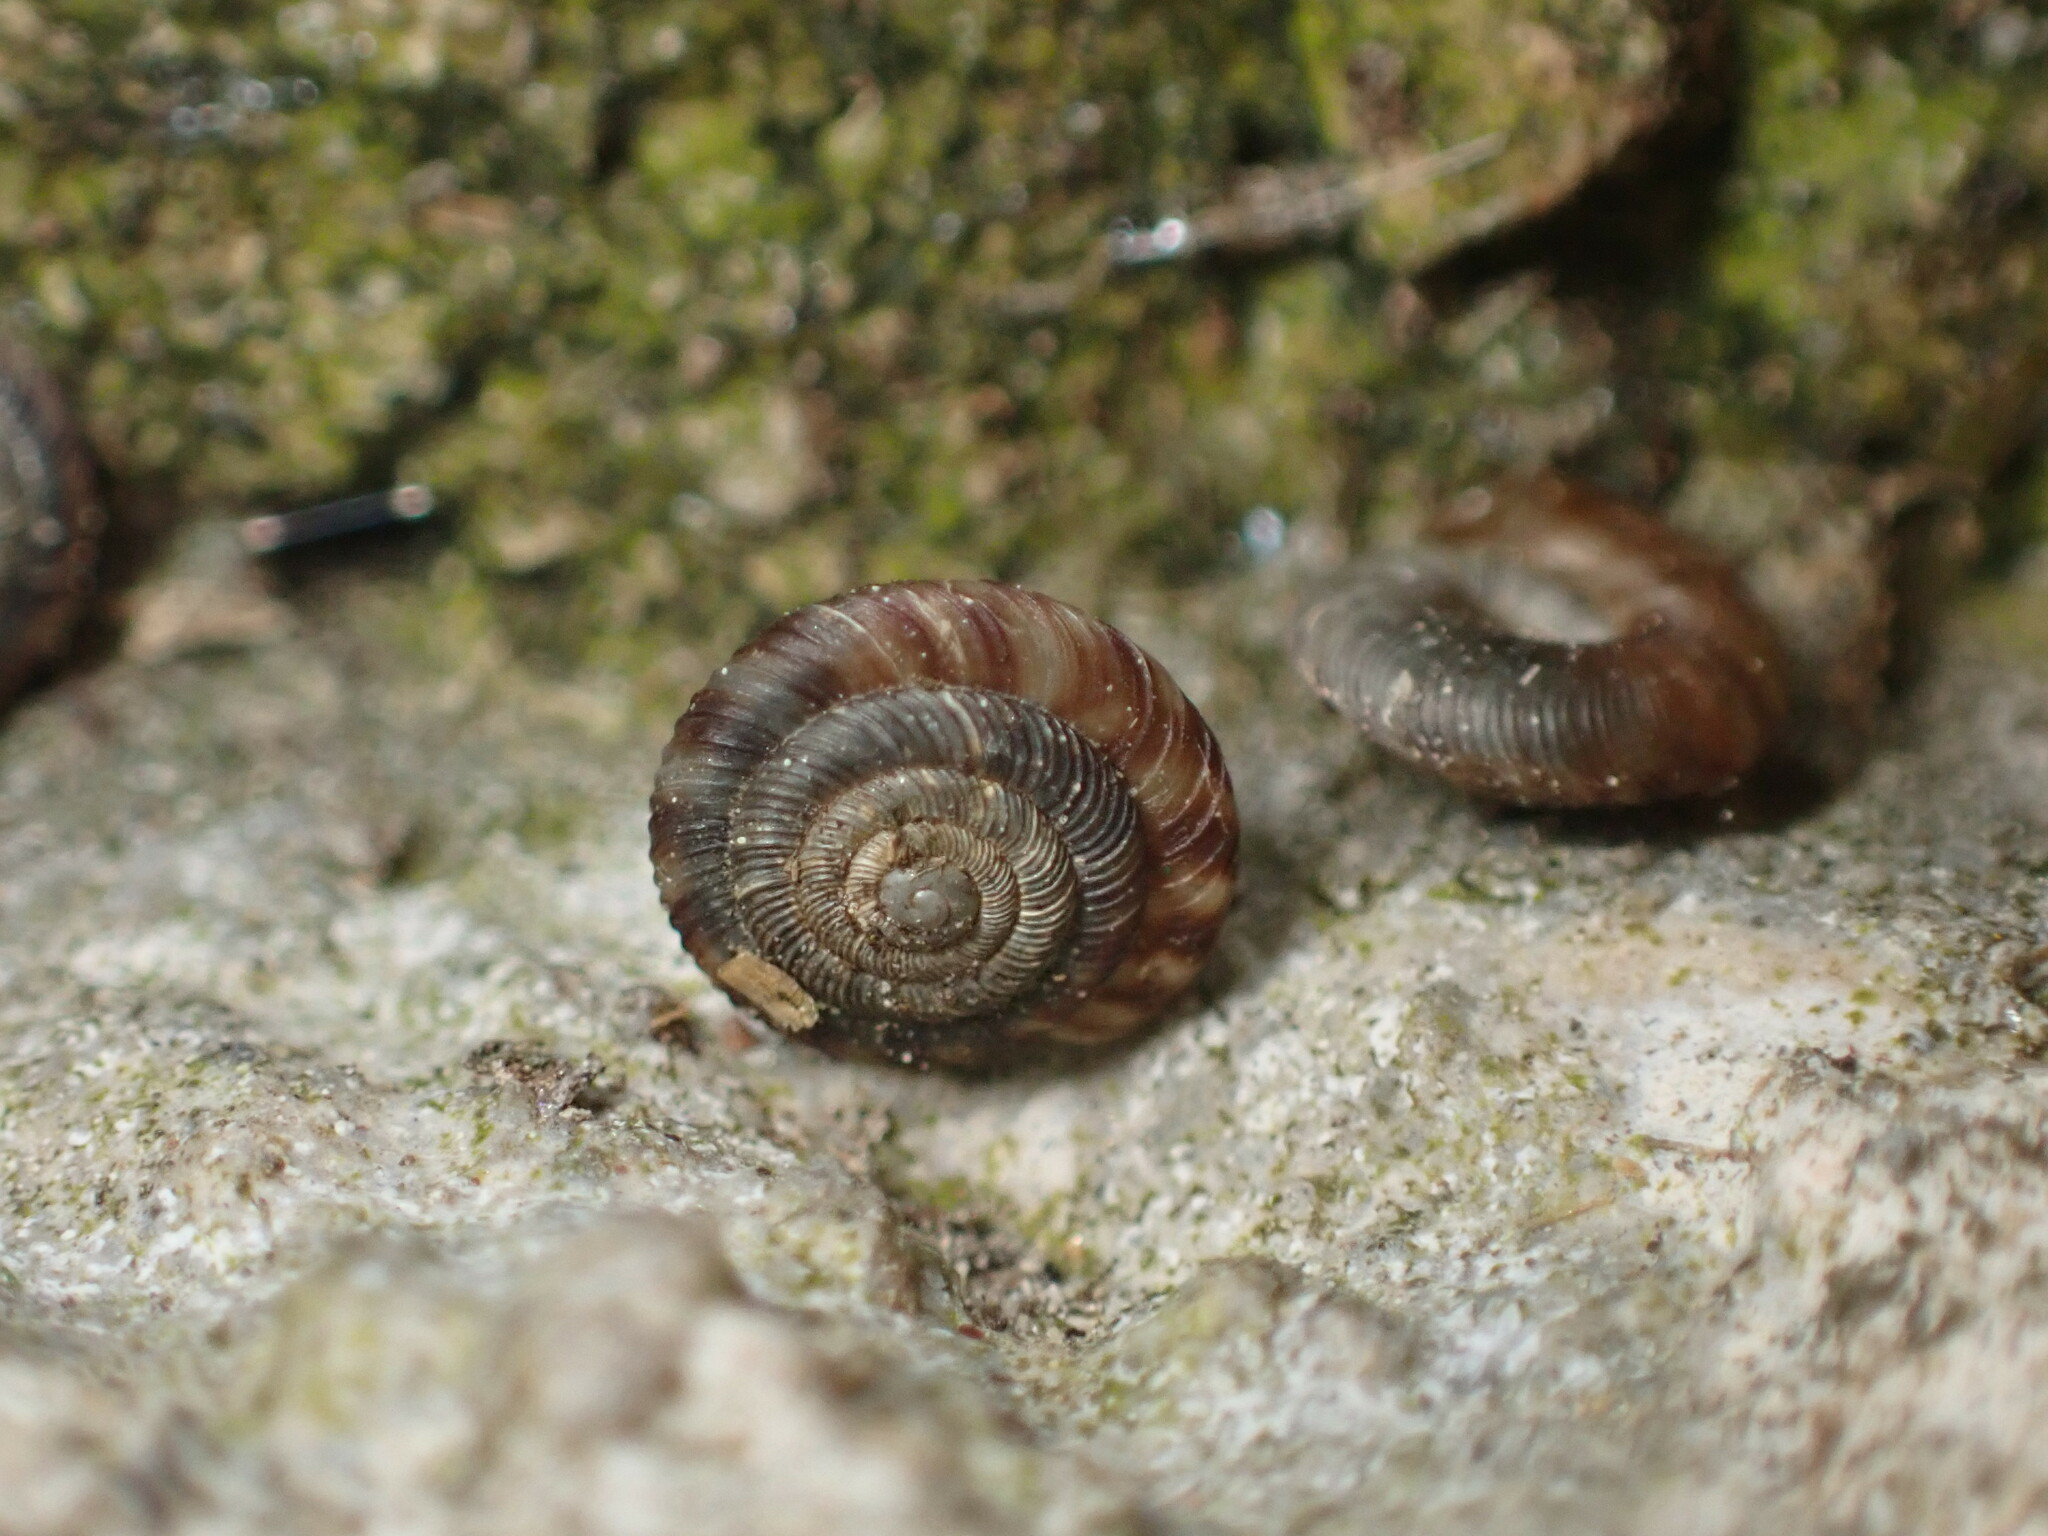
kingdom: Animalia
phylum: Mollusca
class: Gastropoda
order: Stylommatophora
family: Discidae
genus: Discus
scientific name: Discus rotundatus
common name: Rounded snail
